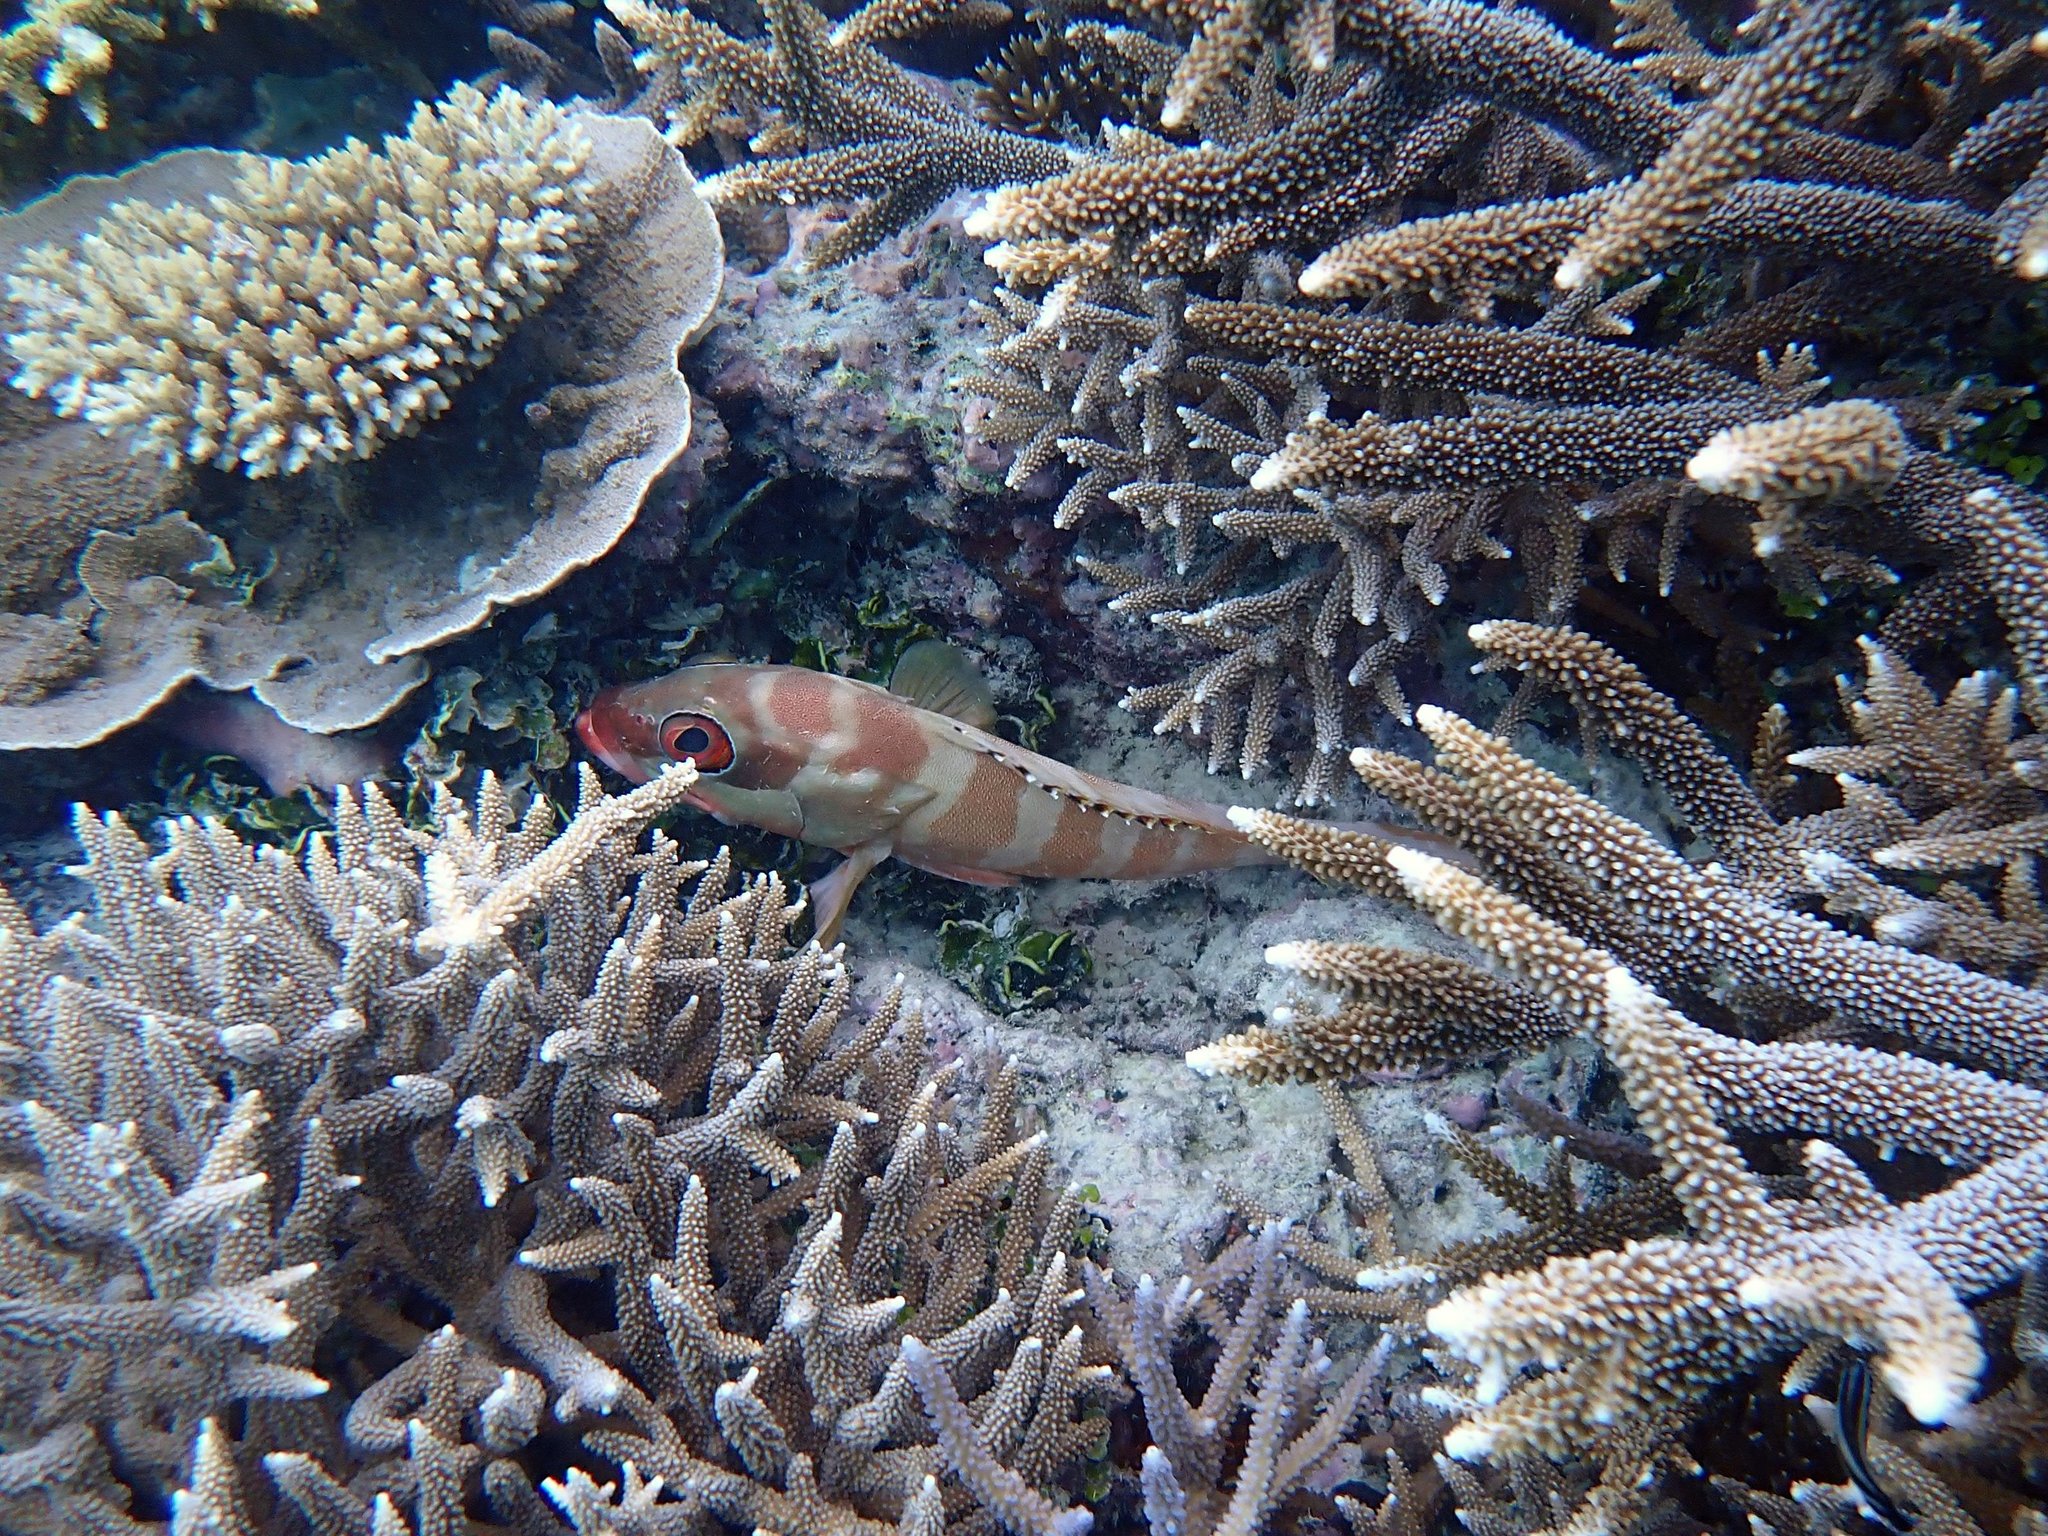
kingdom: Animalia
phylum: Chordata
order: Perciformes
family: Serranidae
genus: Epinephelus
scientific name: Epinephelus fasciatus
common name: Blacktip grouper
